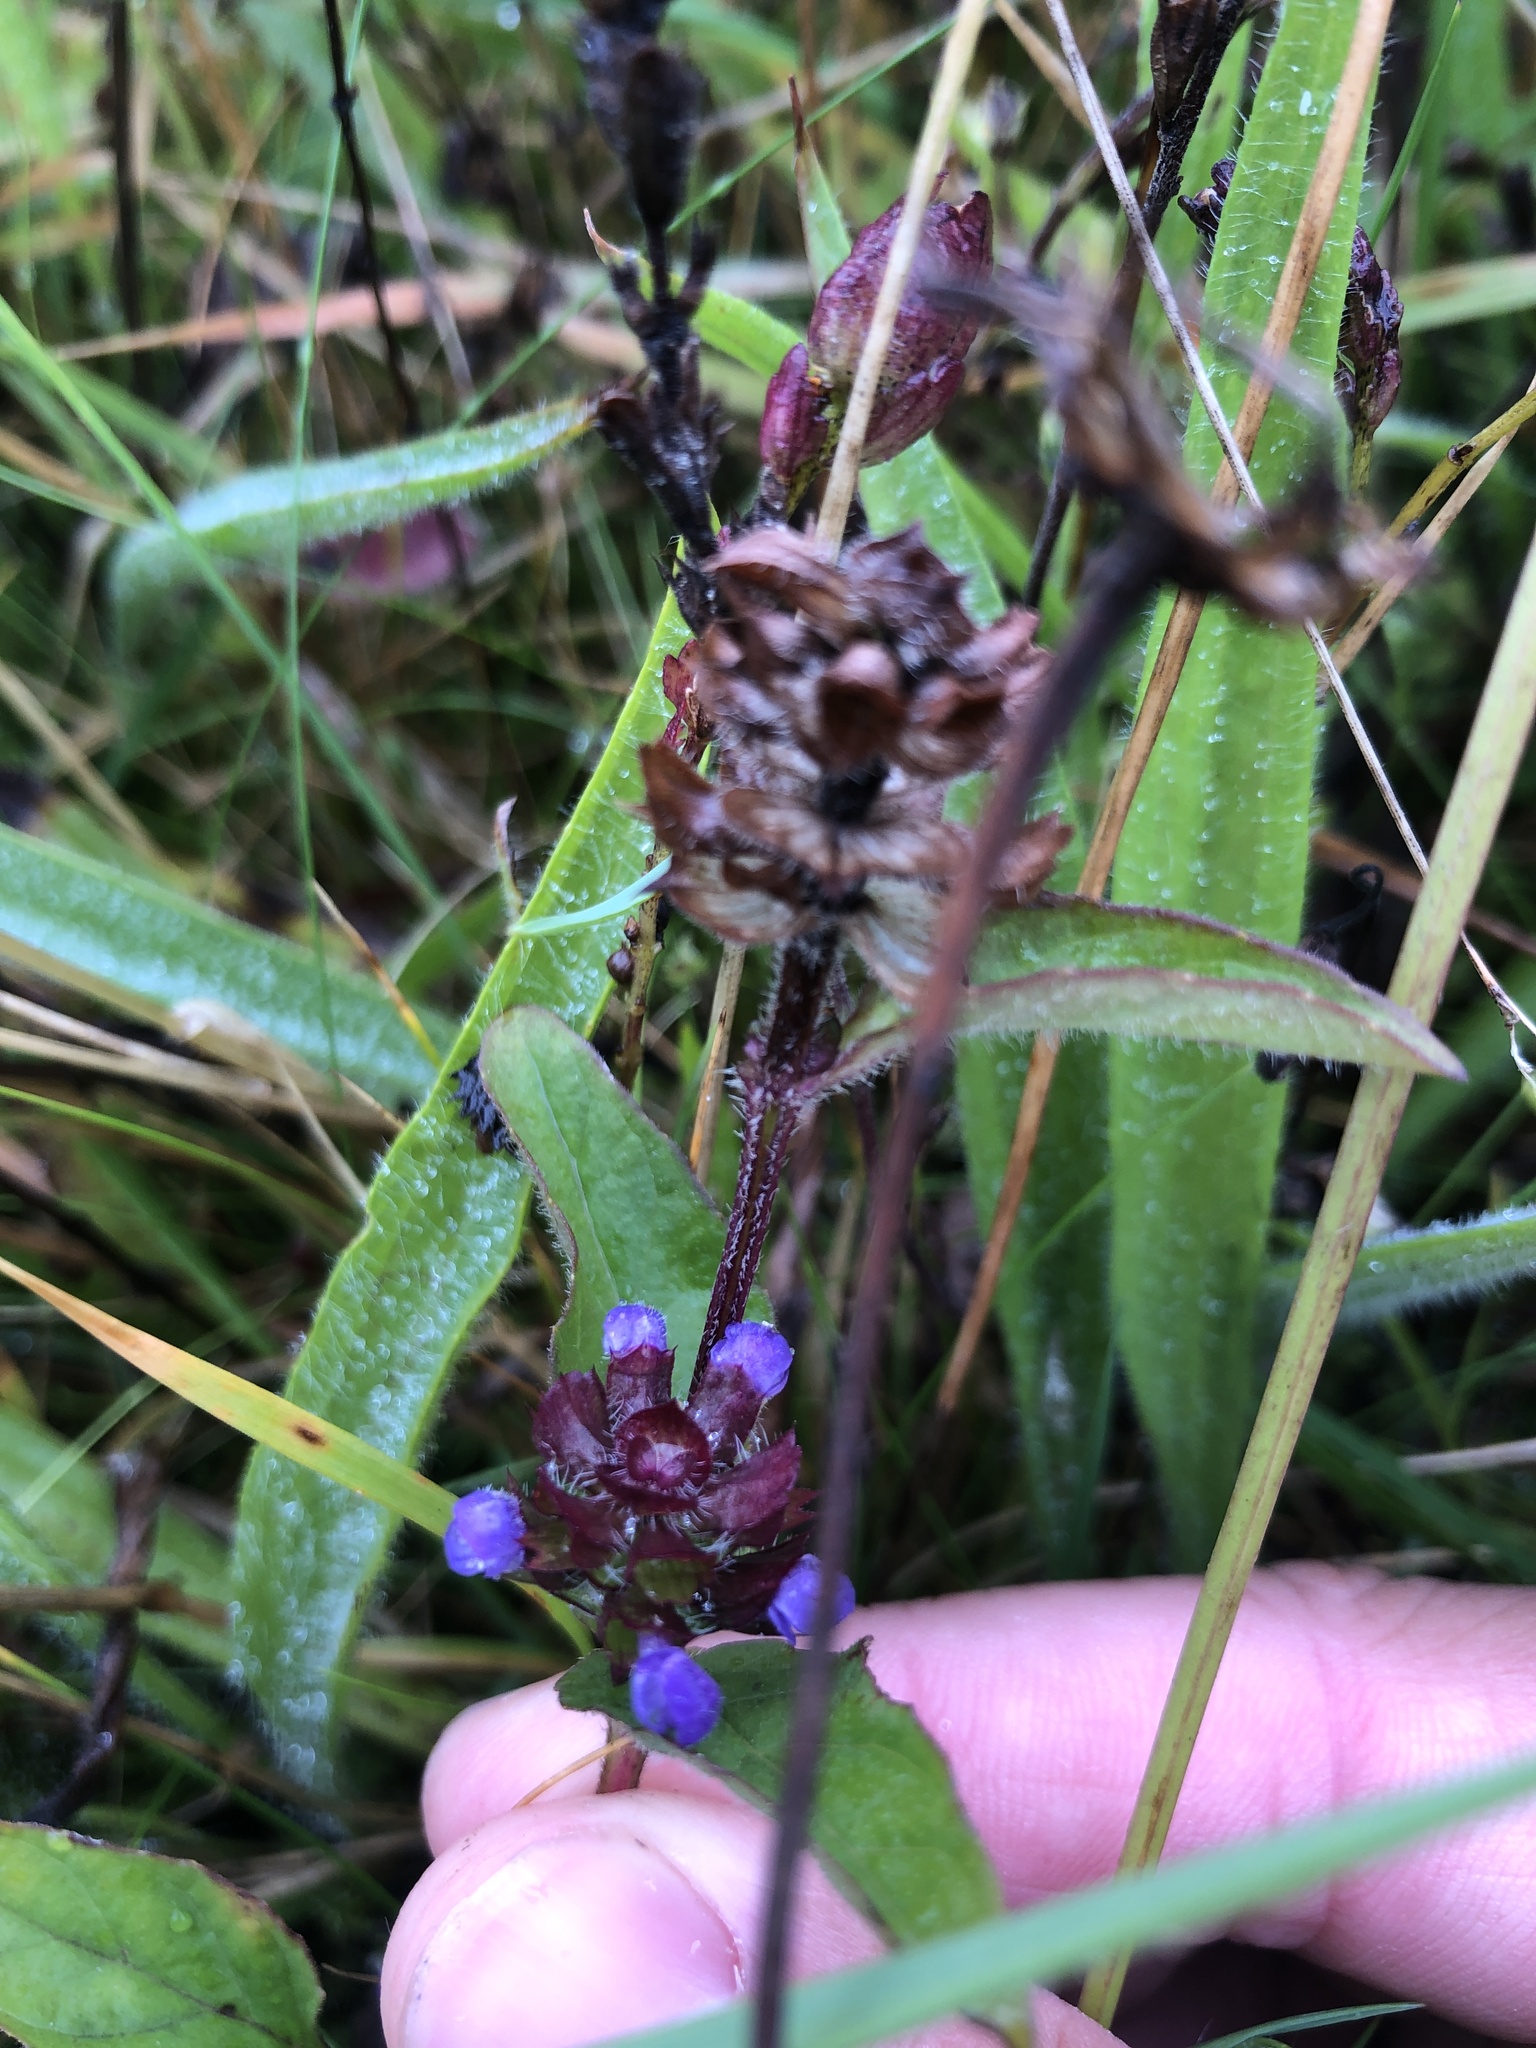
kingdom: Plantae
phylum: Tracheophyta
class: Magnoliopsida
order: Lamiales
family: Lamiaceae
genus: Prunella
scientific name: Prunella vulgaris
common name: Heal-all
